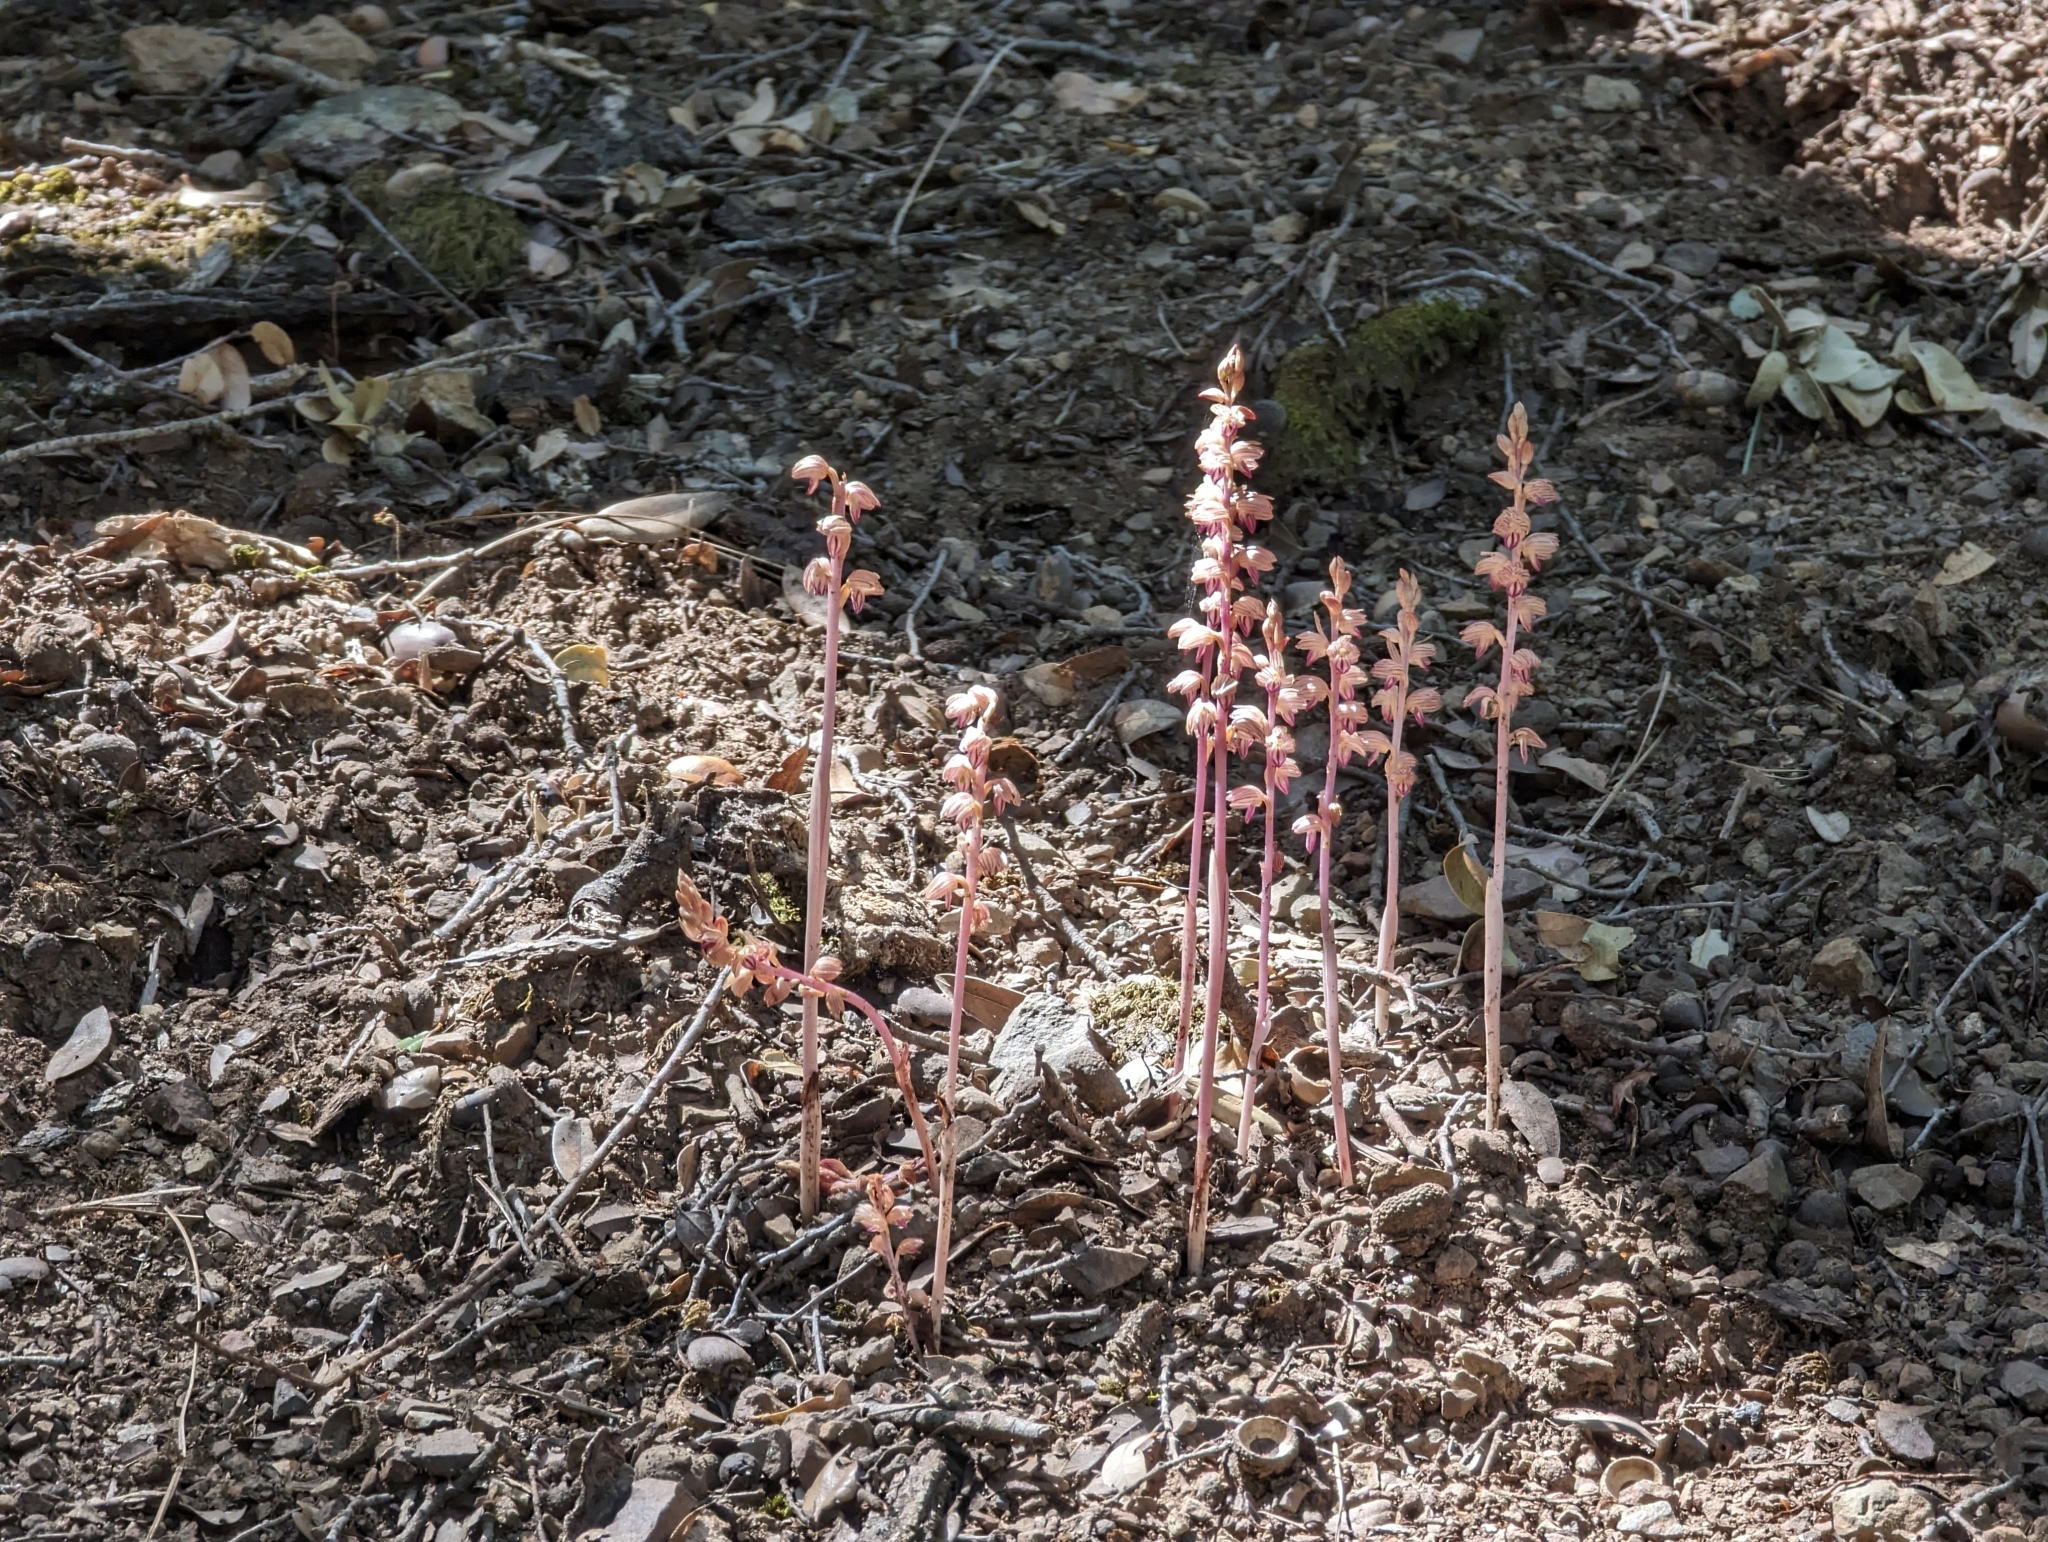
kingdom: Plantae
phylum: Tracheophyta
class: Liliopsida
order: Asparagales
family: Orchidaceae
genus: Corallorhiza
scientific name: Corallorhiza striata
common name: Hooded coralroot
